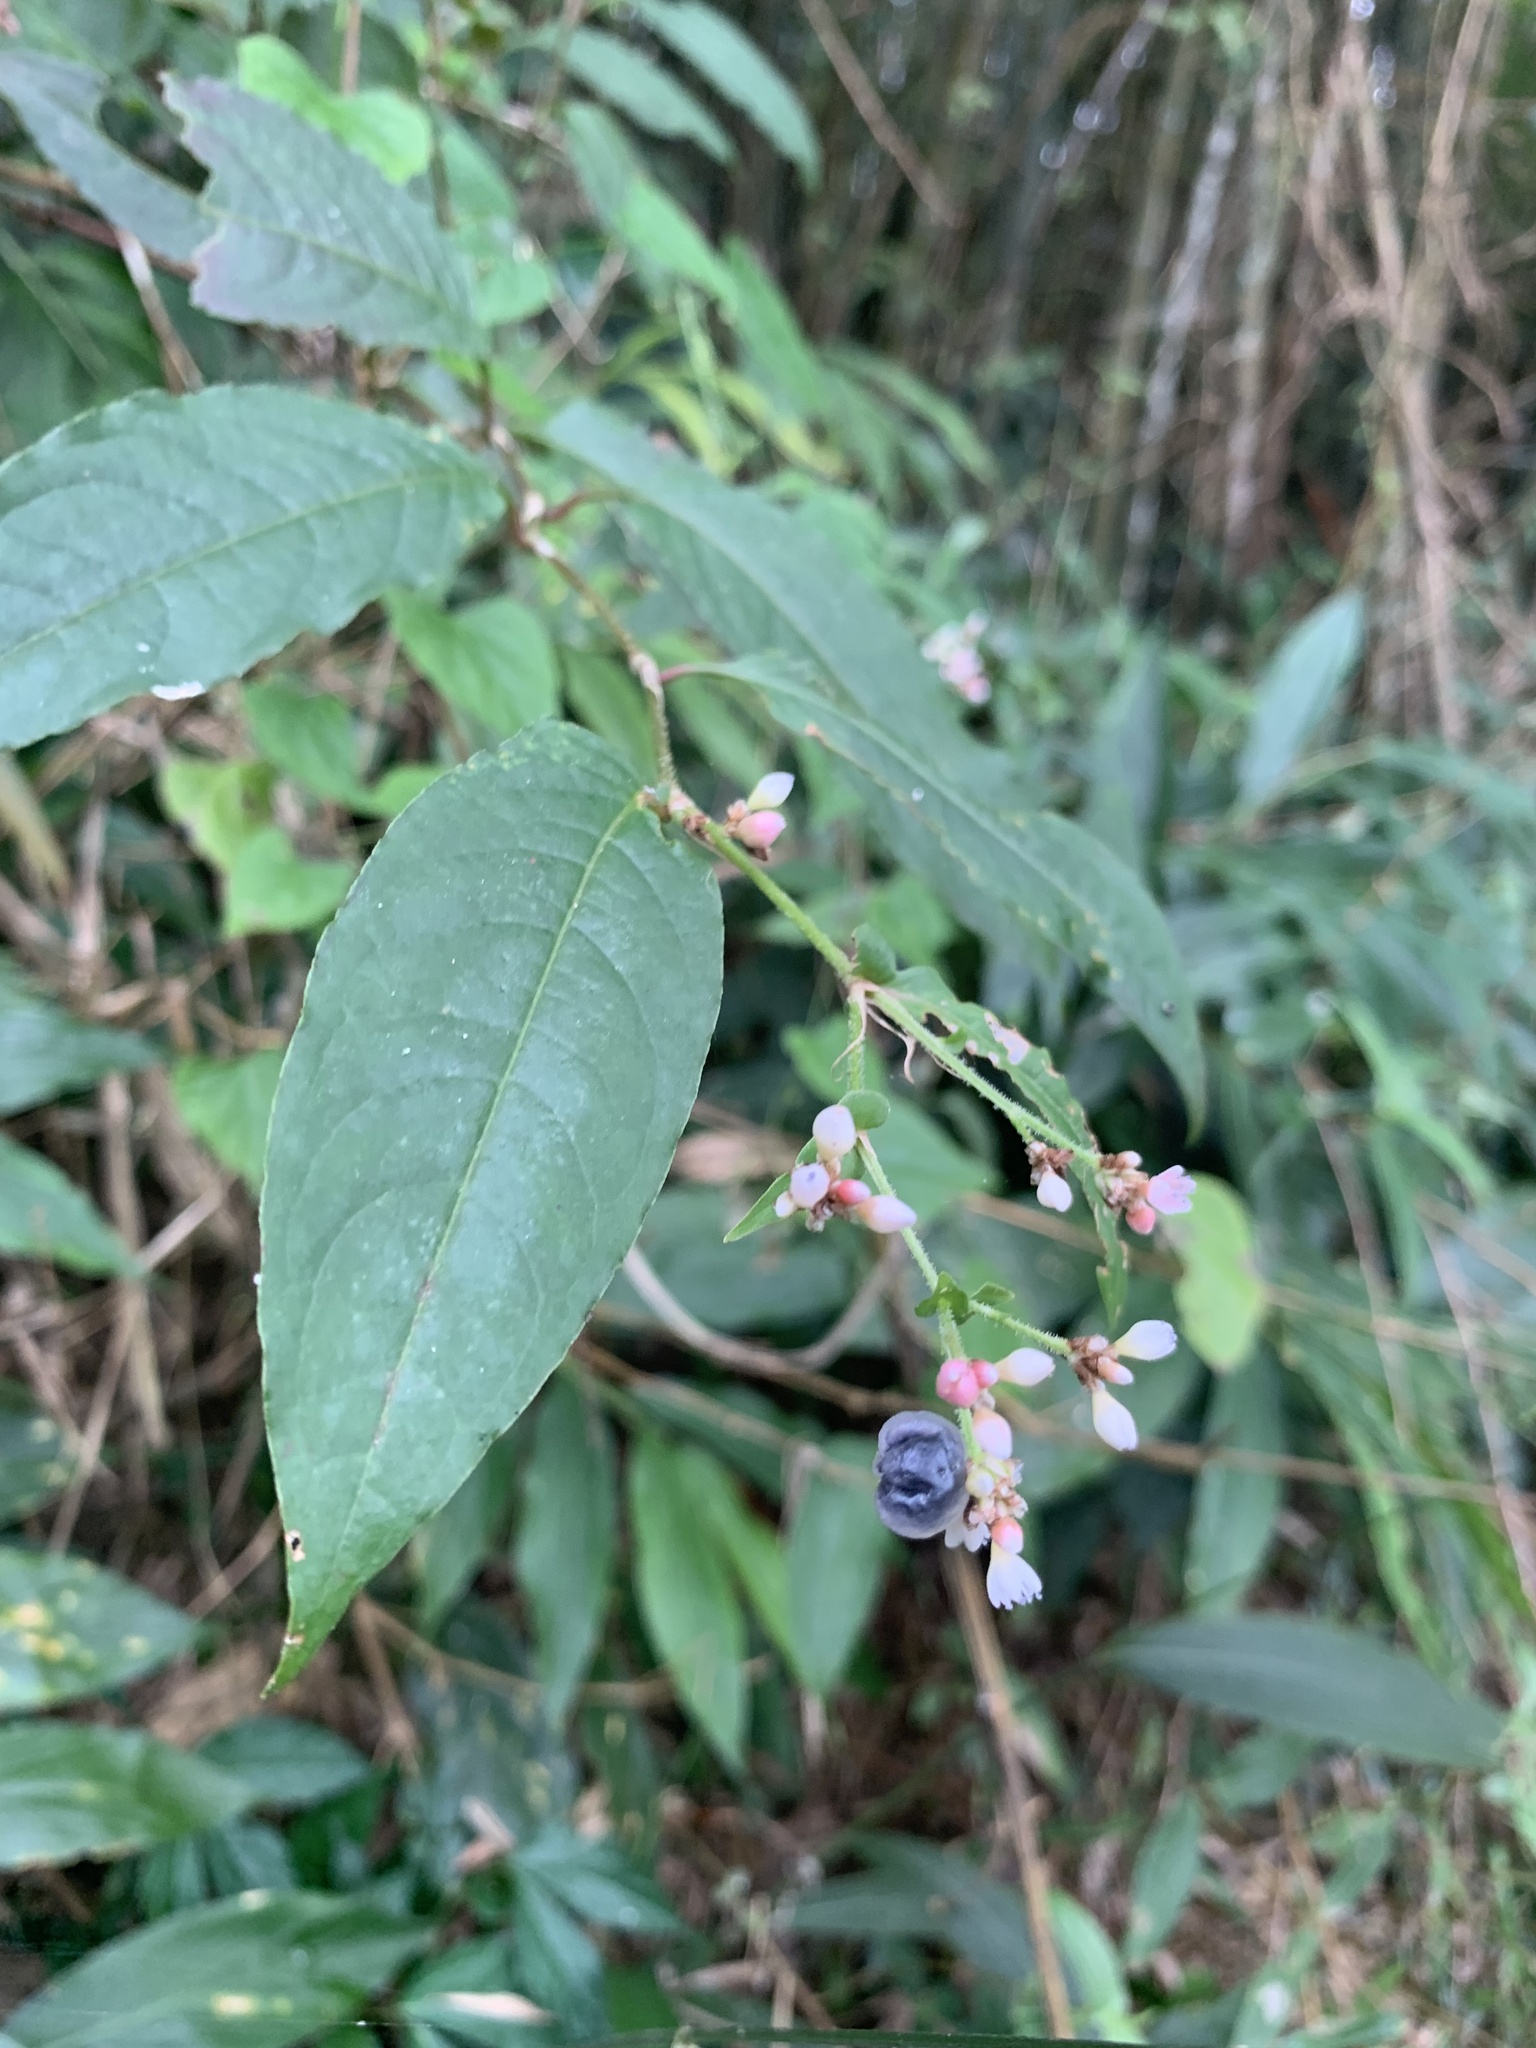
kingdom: Plantae
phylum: Tracheophyta
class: Magnoliopsida
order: Caryophyllales
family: Polygonaceae
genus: Persicaria
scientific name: Persicaria chinensis
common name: Chinese knotweed
